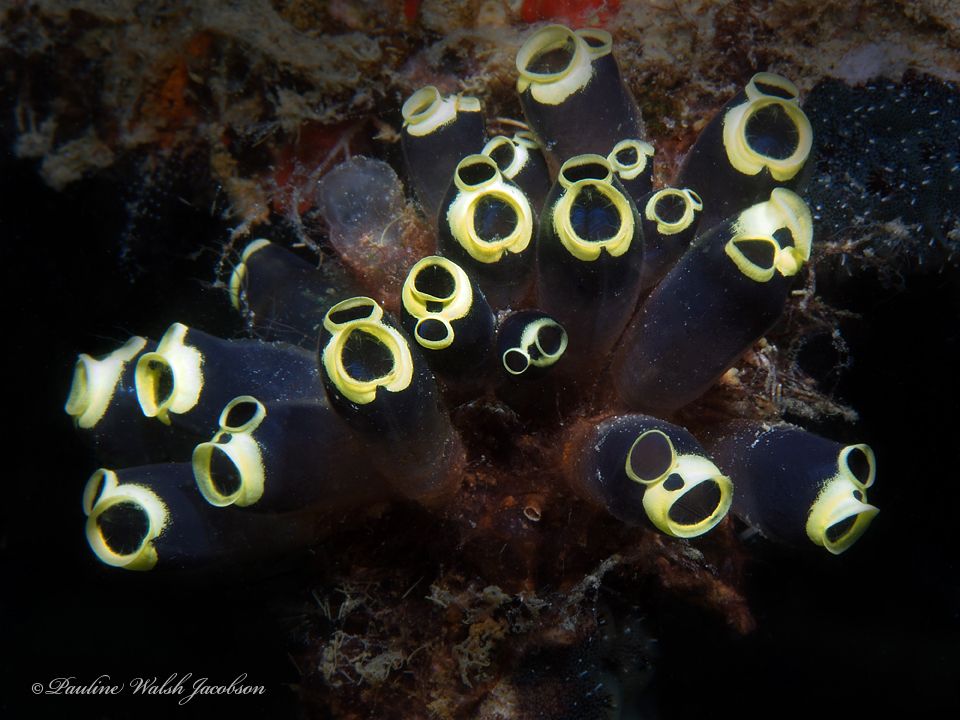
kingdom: Animalia
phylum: Chordata
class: Ascidiacea
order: Aplousobranchia
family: Clavelinidae
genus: Clavelina
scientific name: Clavelina robusta
